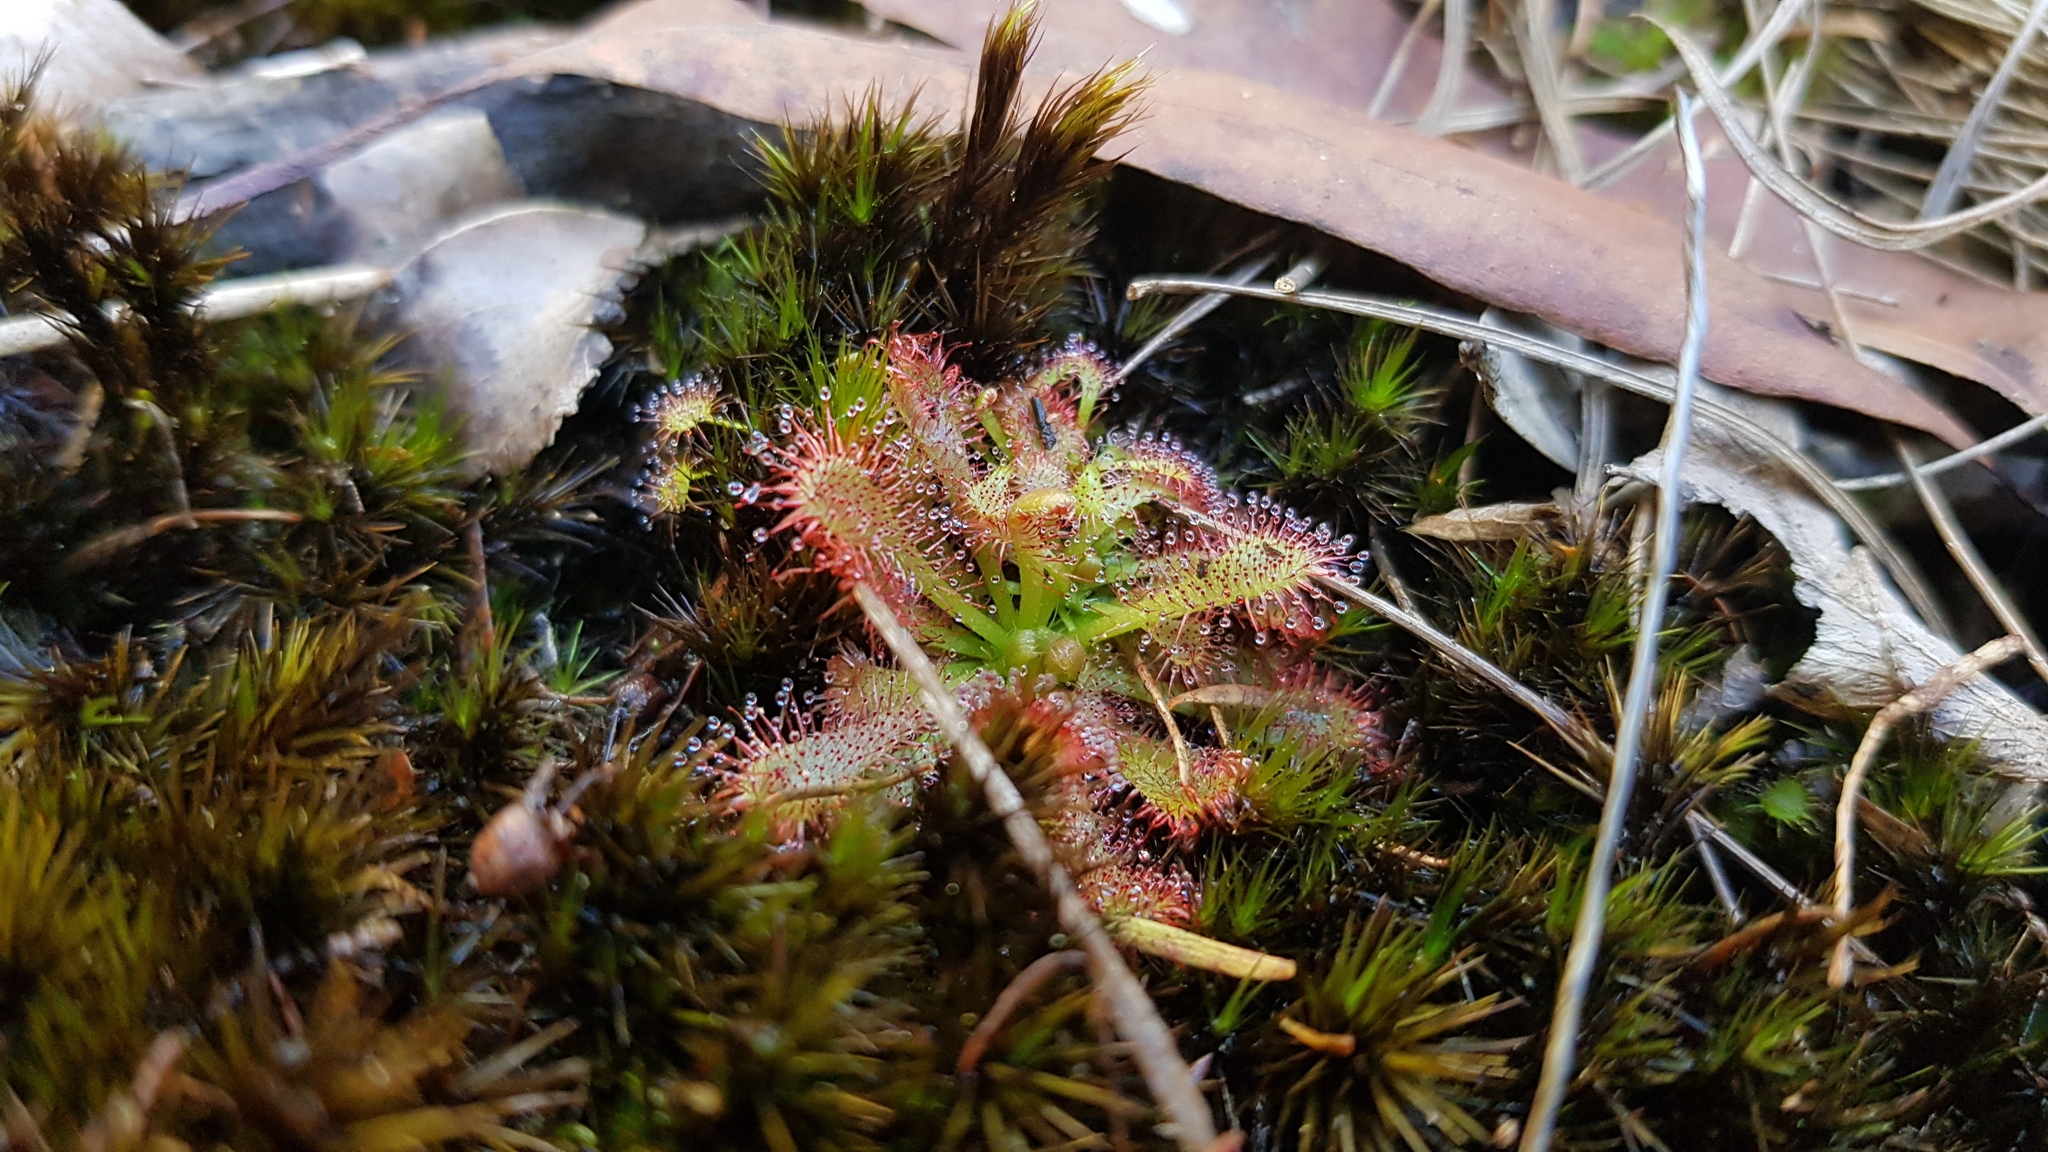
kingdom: Plantae
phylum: Tracheophyta
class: Magnoliopsida
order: Caryophyllales
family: Droseraceae
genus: Drosera
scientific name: Drosera spatulata
